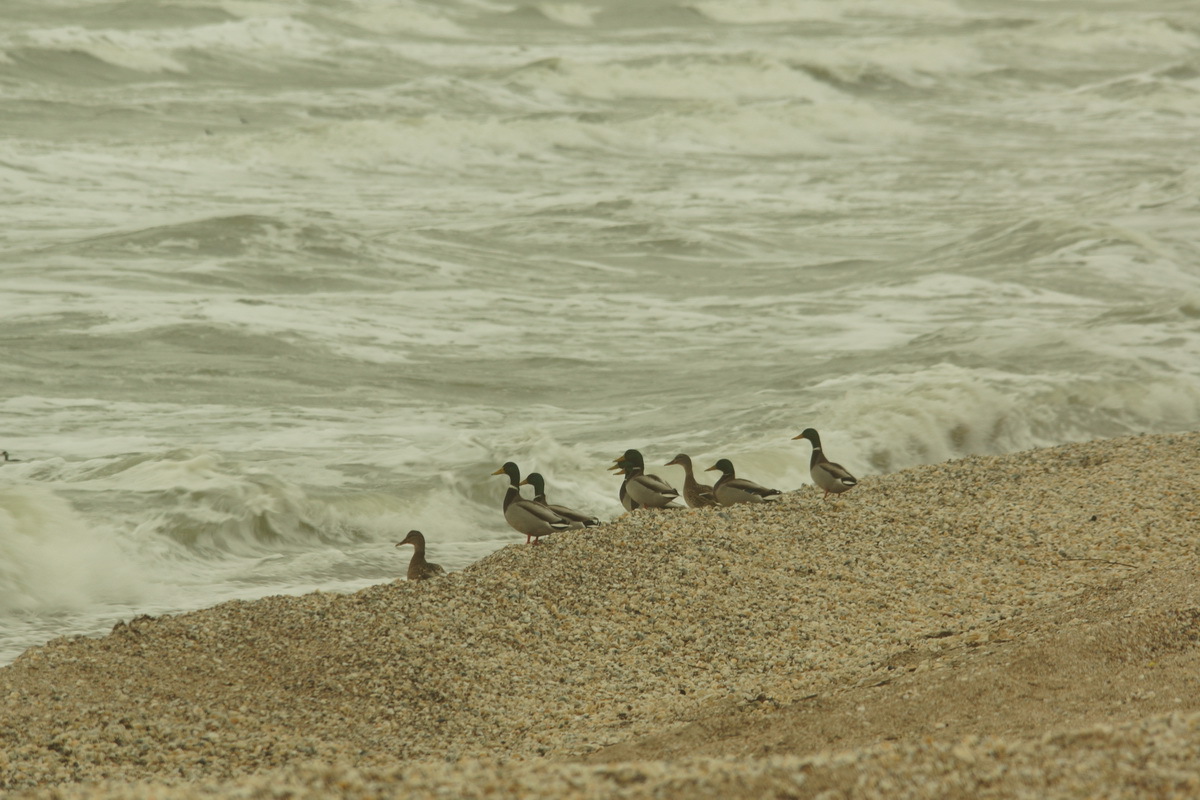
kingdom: Animalia
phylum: Chordata
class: Aves
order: Anseriformes
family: Anatidae
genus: Anas
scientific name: Anas platyrhynchos
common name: Mallard
